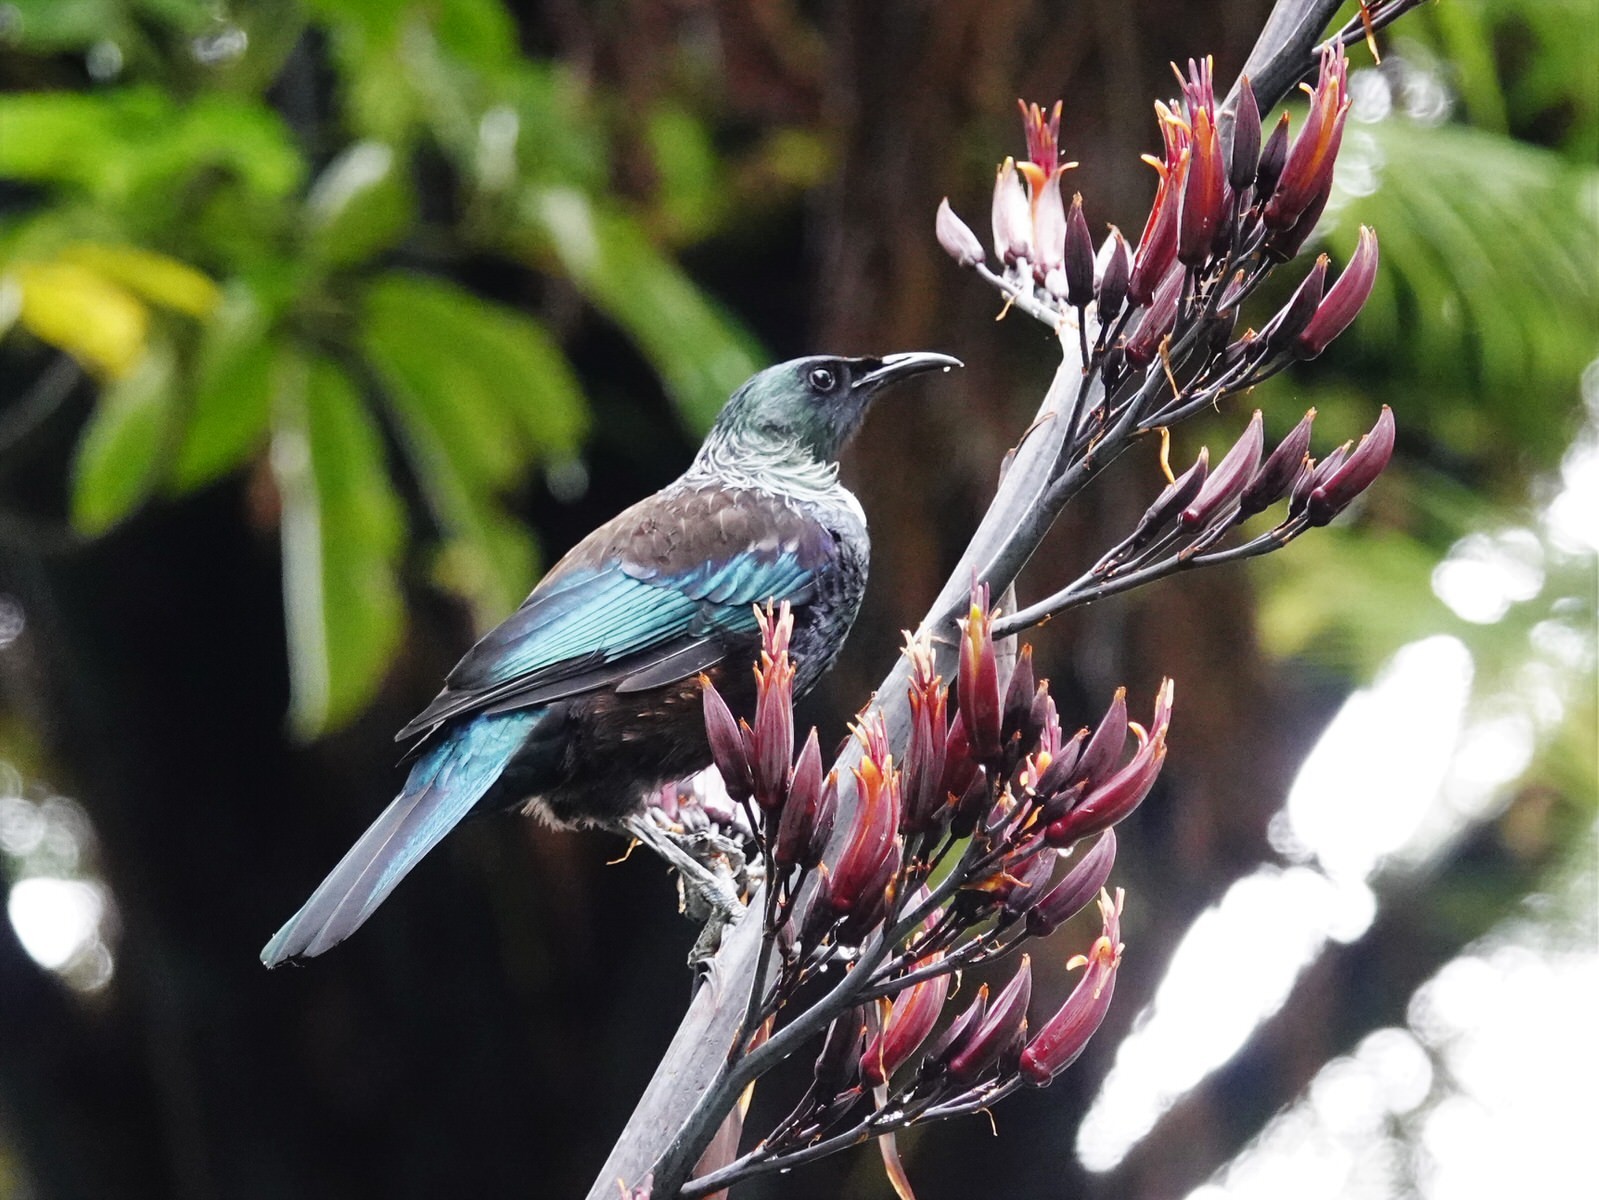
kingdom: Animalia
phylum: Chordata
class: Aves
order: Passeriformes
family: Meliphagidae
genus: Prosthemadera
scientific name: Prosthemadera novaeseelandiae
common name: Tui
